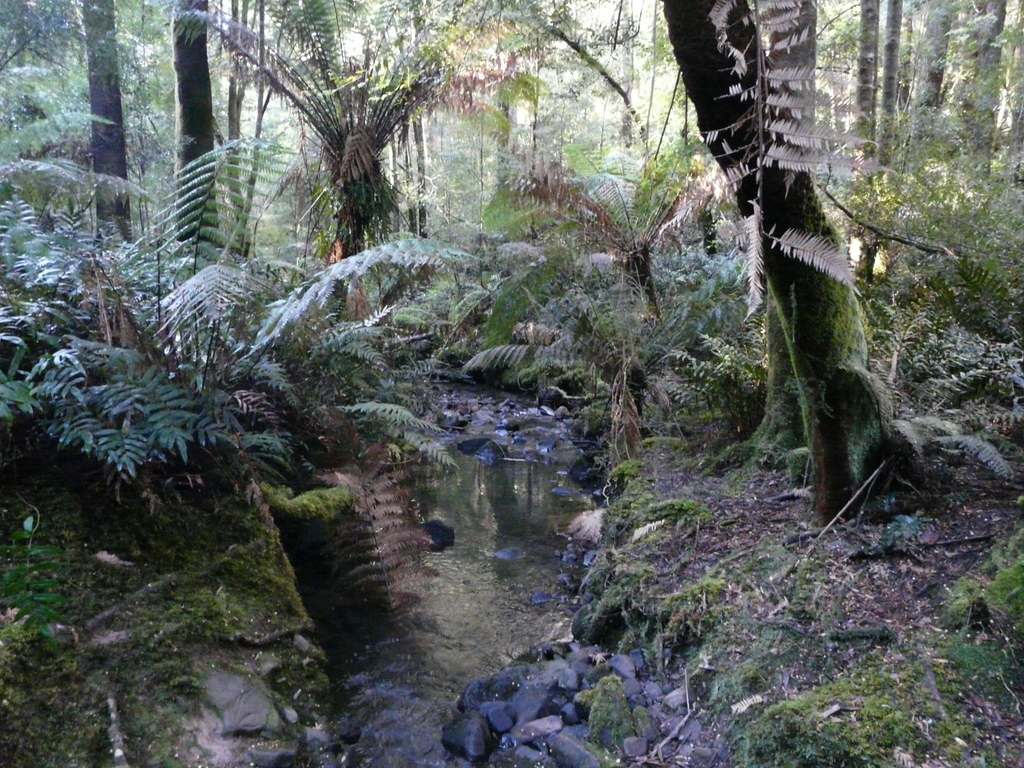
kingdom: Plantae
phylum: Tracheophyta
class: Polypodiopsida
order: Cyatheales
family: Dicksoniaceae
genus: Dicksonia
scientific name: Dicksonia antarctica
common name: Australian treefern
